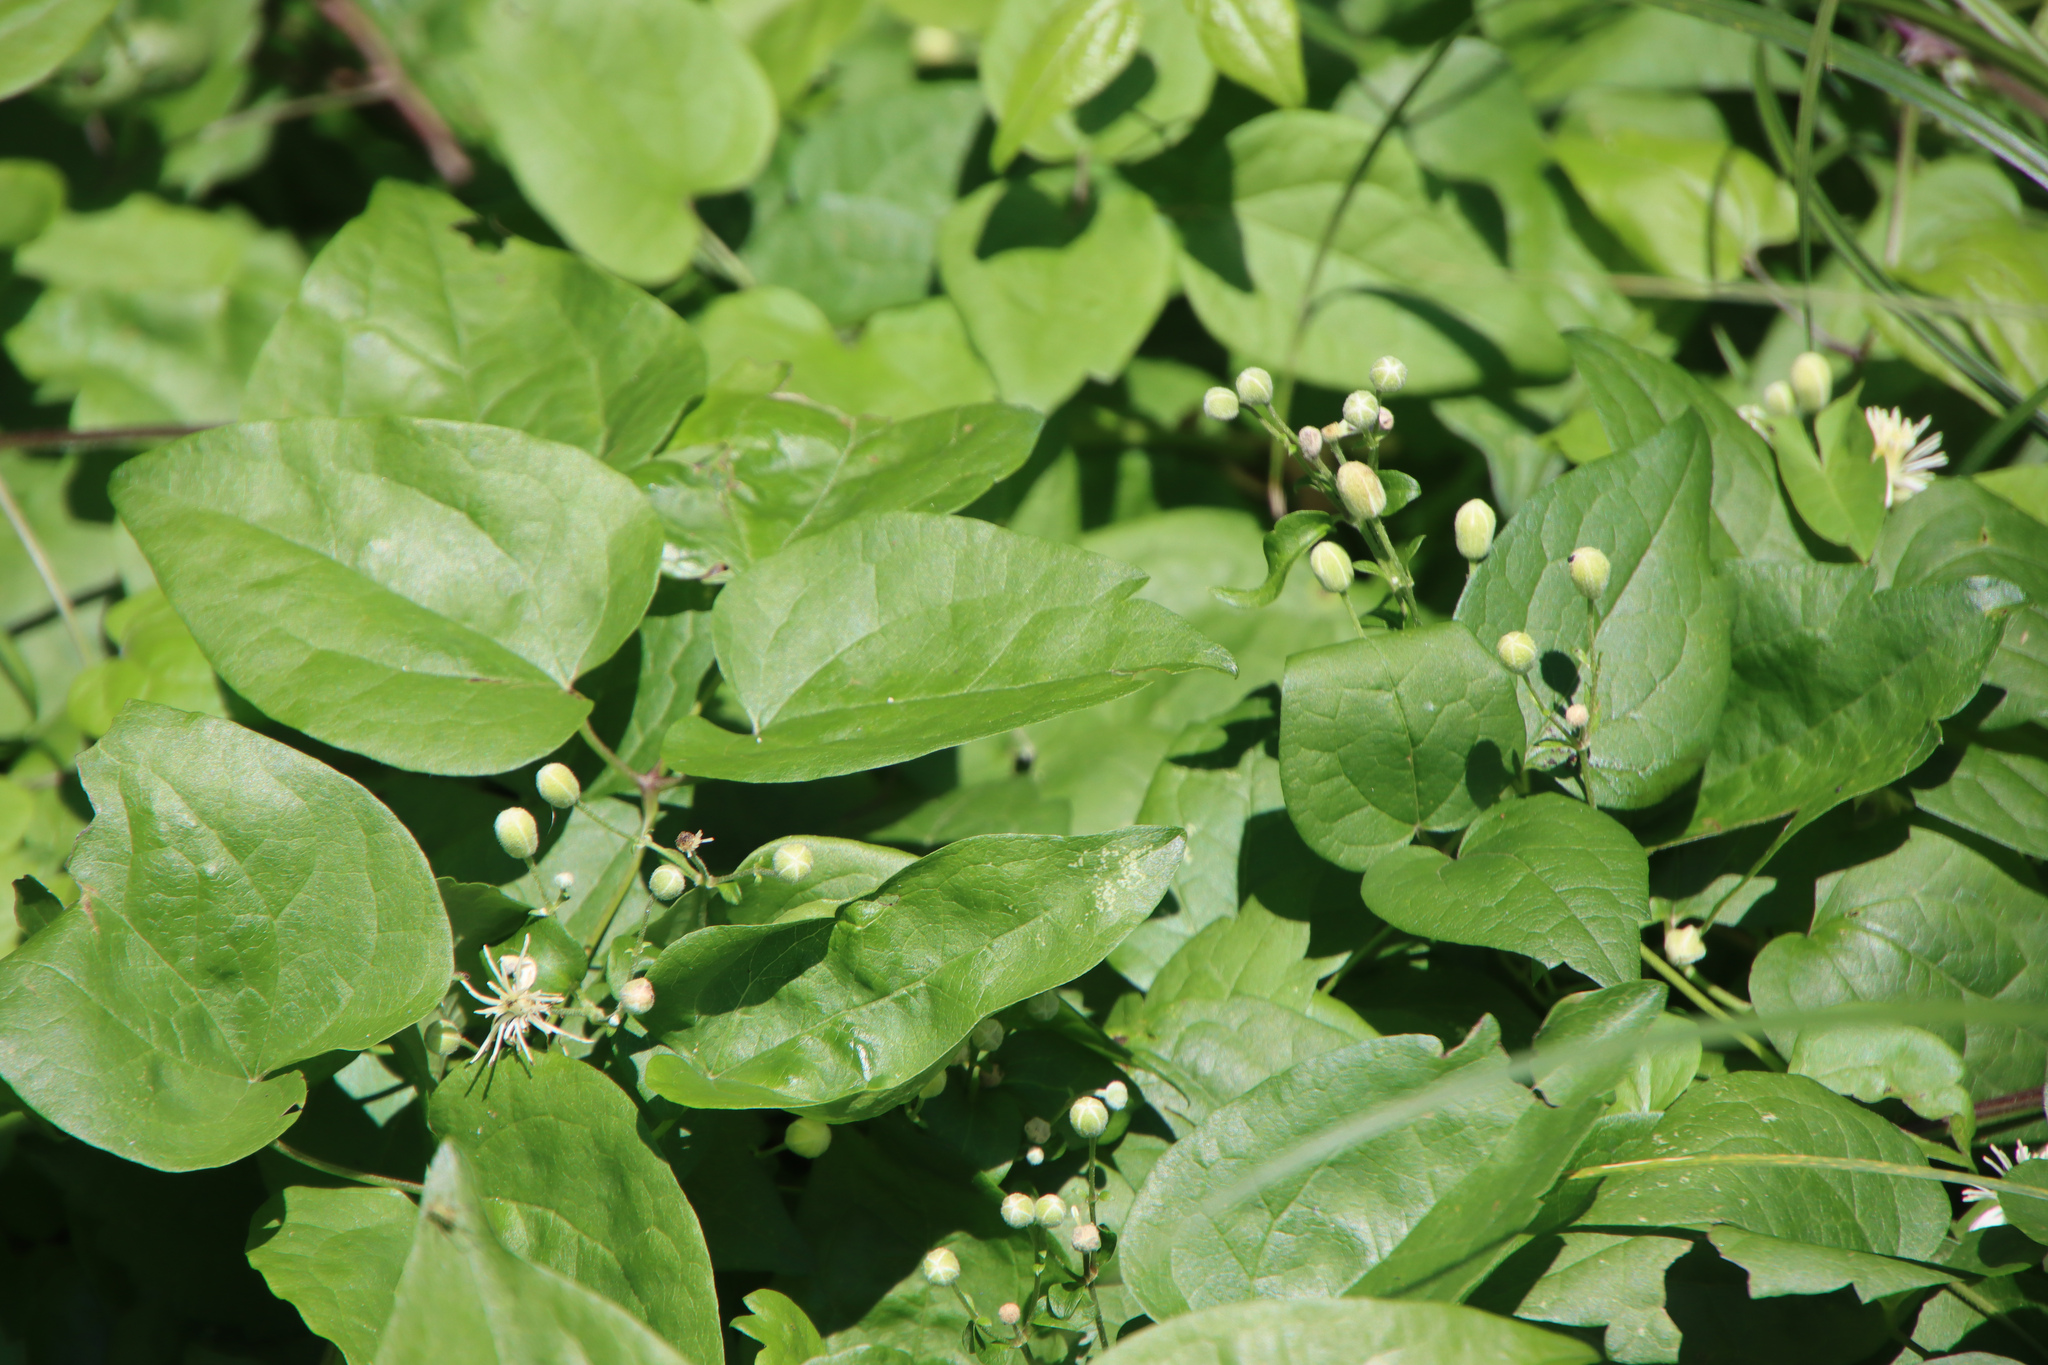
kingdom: Plantae
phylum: Tracheophyta
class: Magnoliopsida
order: Ranunculales
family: Ranunculaceae
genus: Clematis
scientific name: Clematis vitalba
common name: Evergreen clematis
